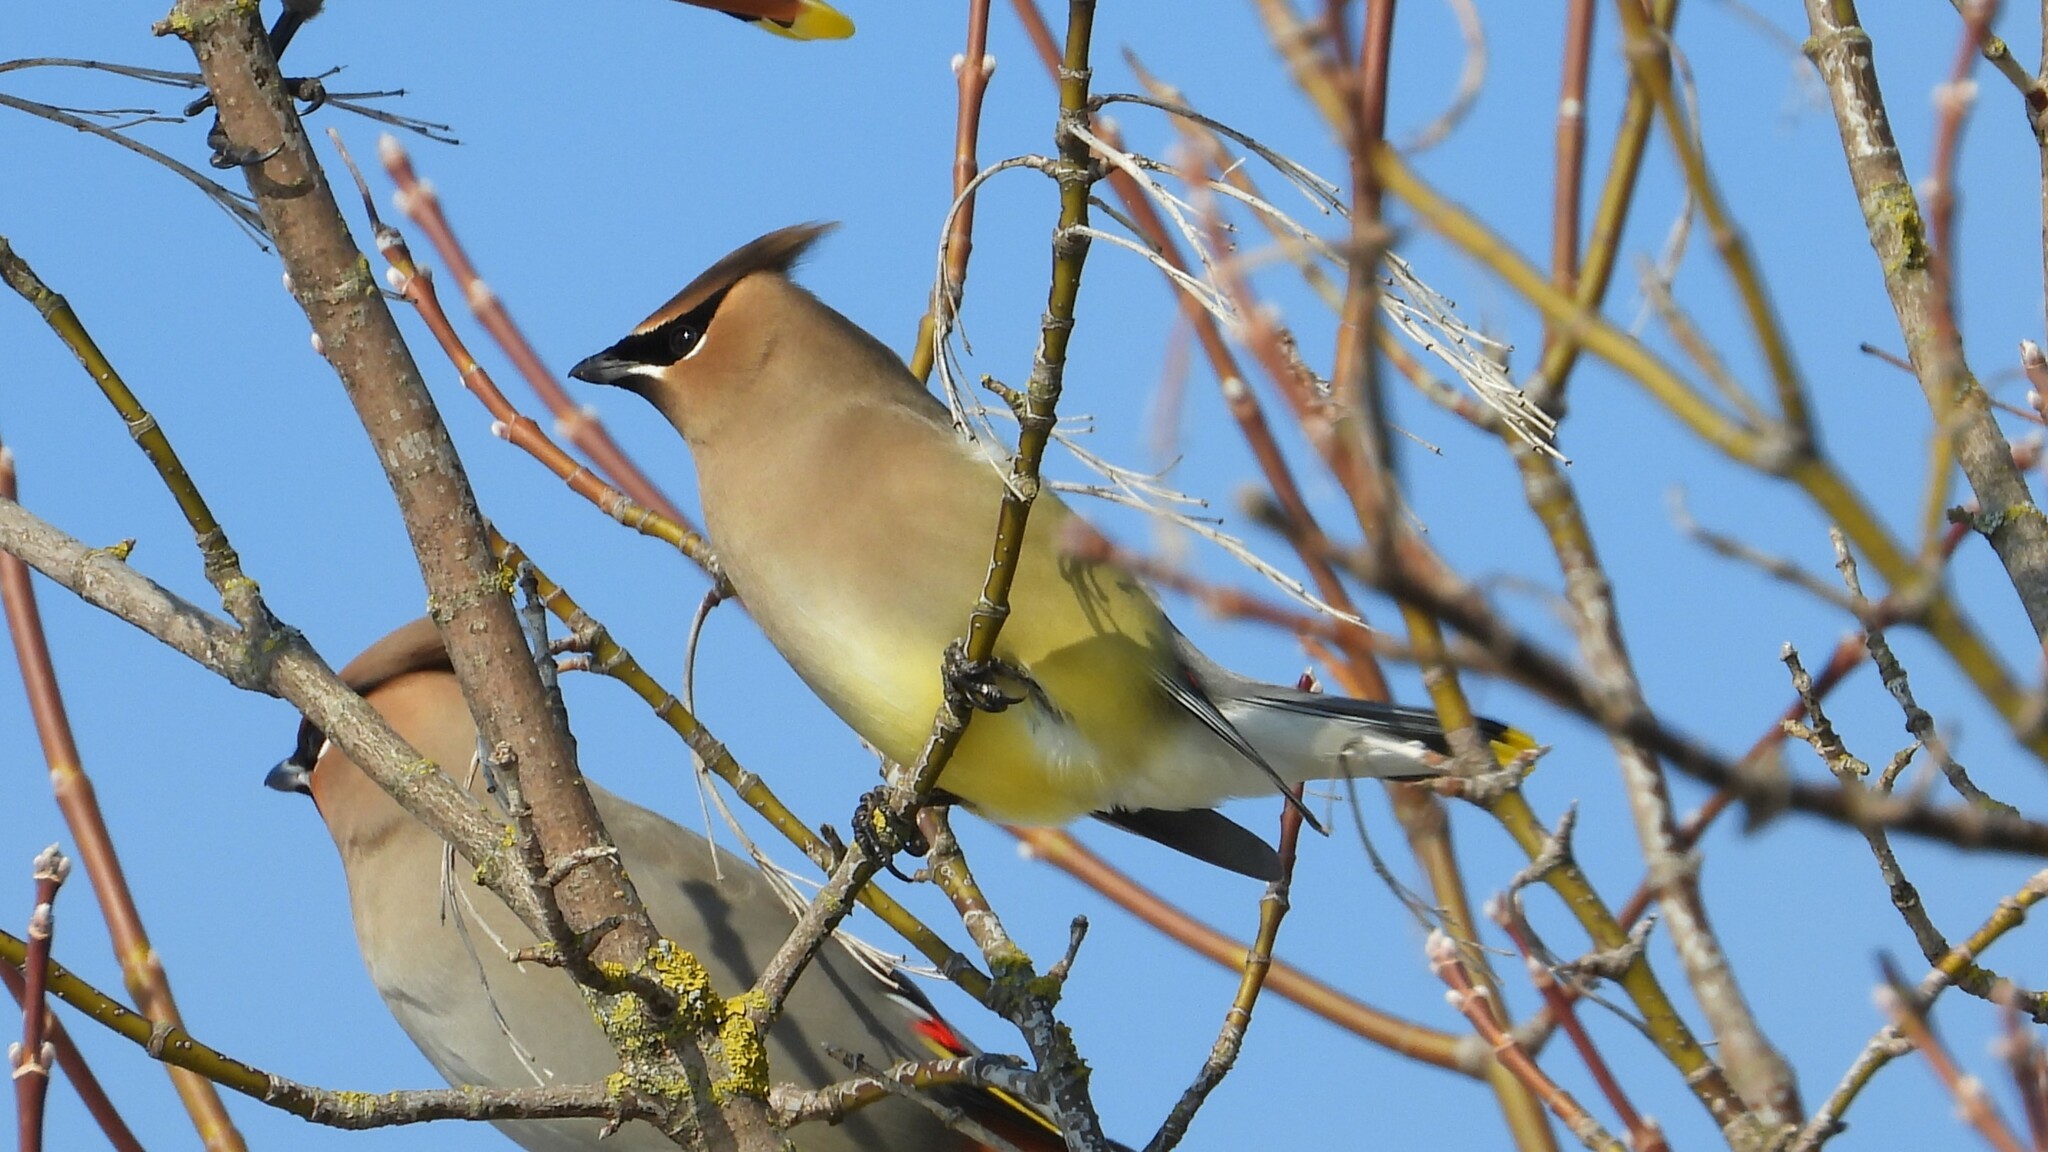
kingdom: Animalia
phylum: Chordata
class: Aves
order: Passeriformes
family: Bombycillidae
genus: Bombycilla
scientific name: Bombycilla cedrorum
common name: Cedar waxwing
